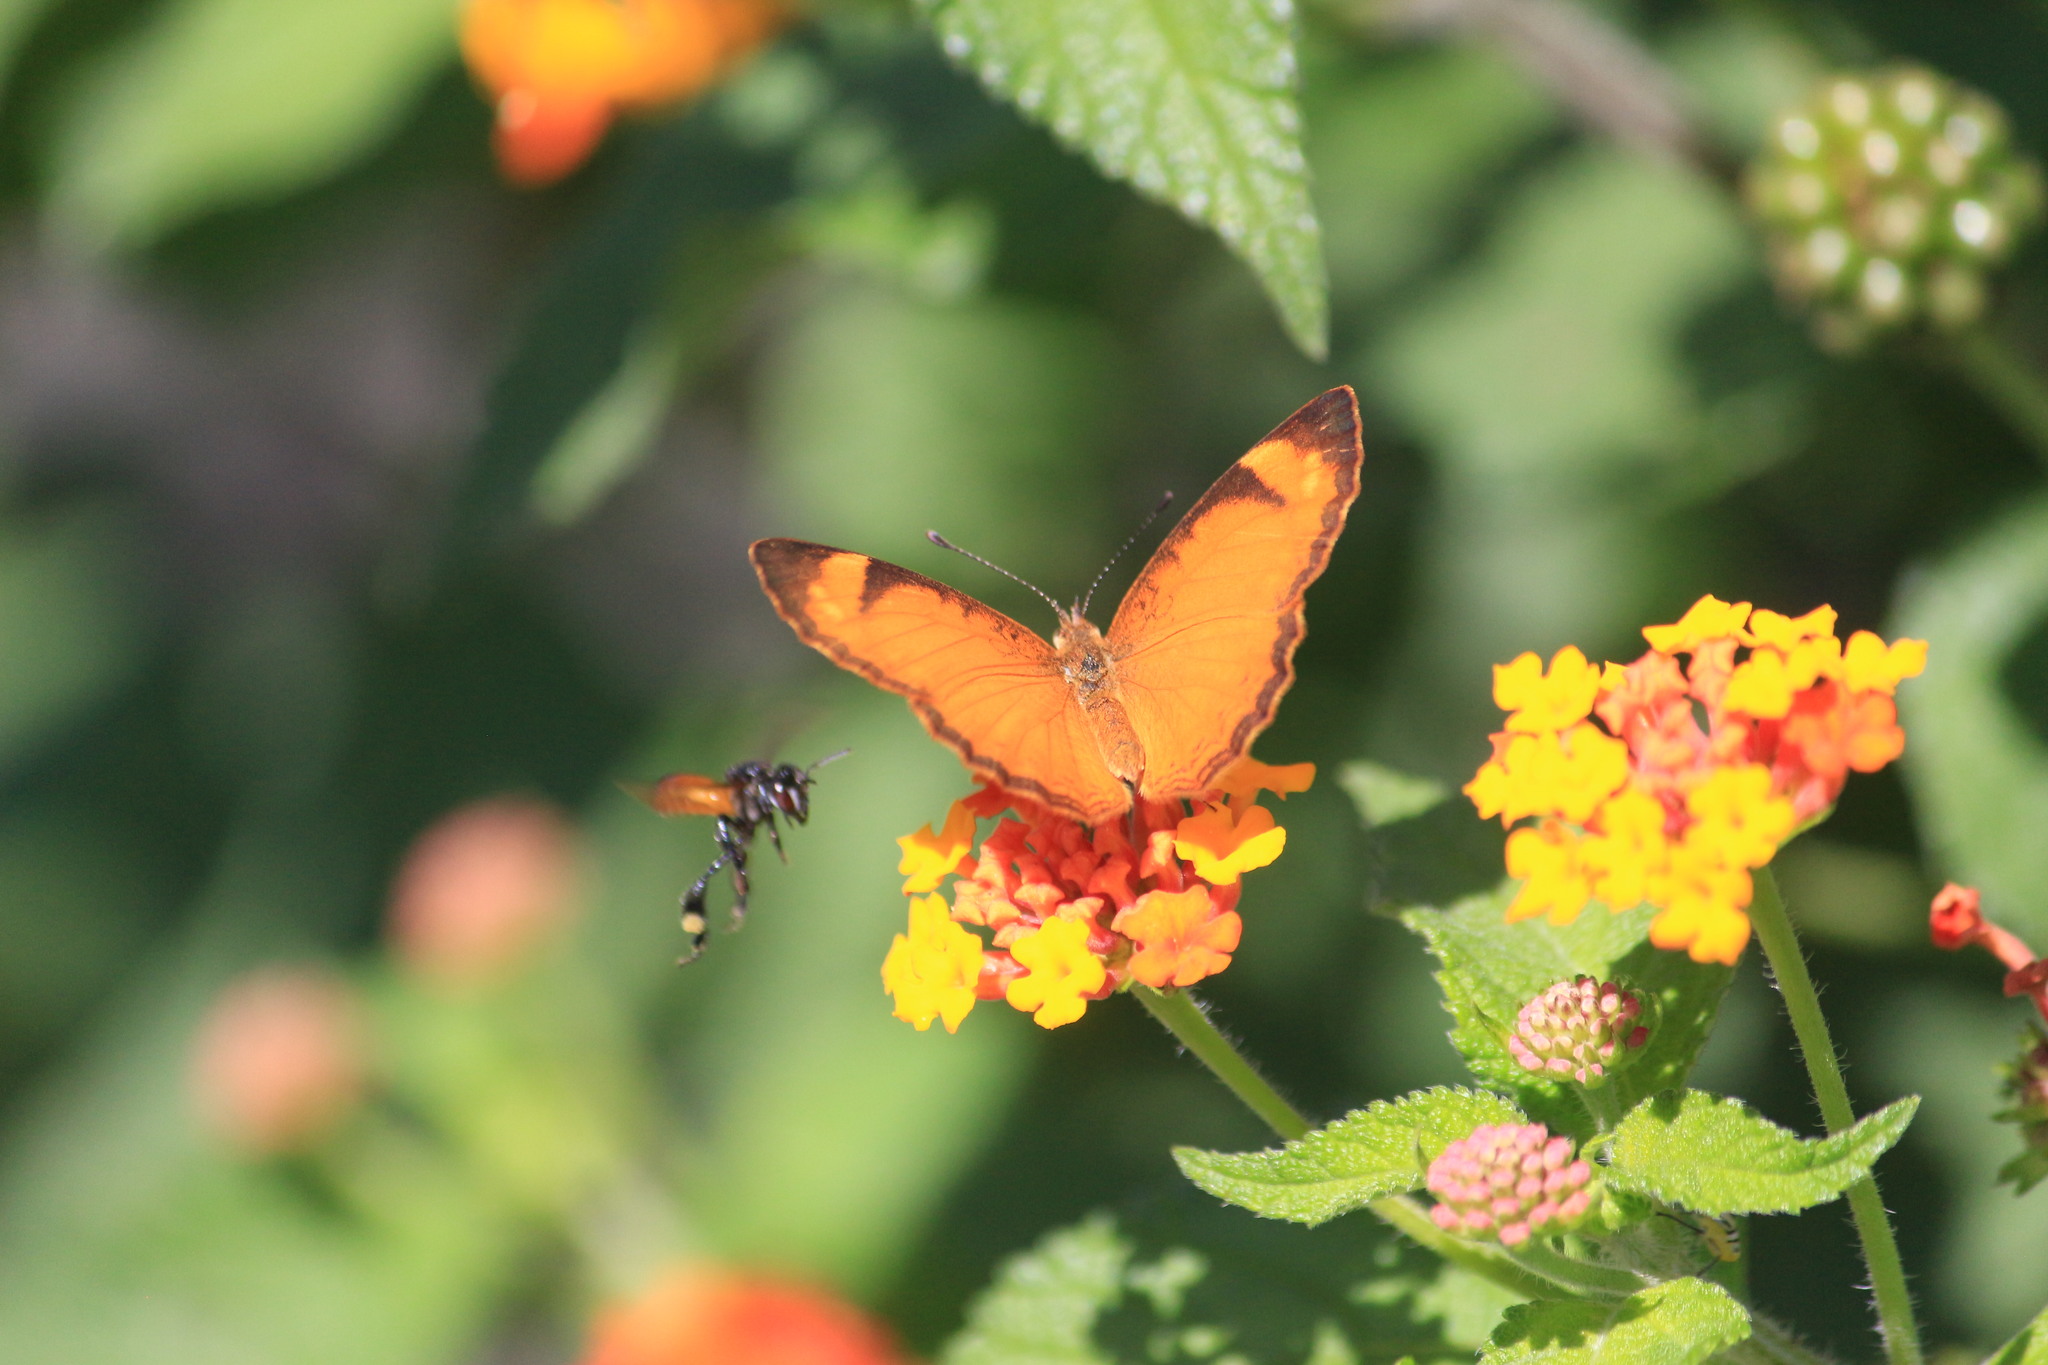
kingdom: Animalia
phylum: Arthropoda
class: Insecta
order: Lepidoptera
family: Nymphalidae
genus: Tegosa
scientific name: Tegosa anieta
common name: Black-bordered crescent
